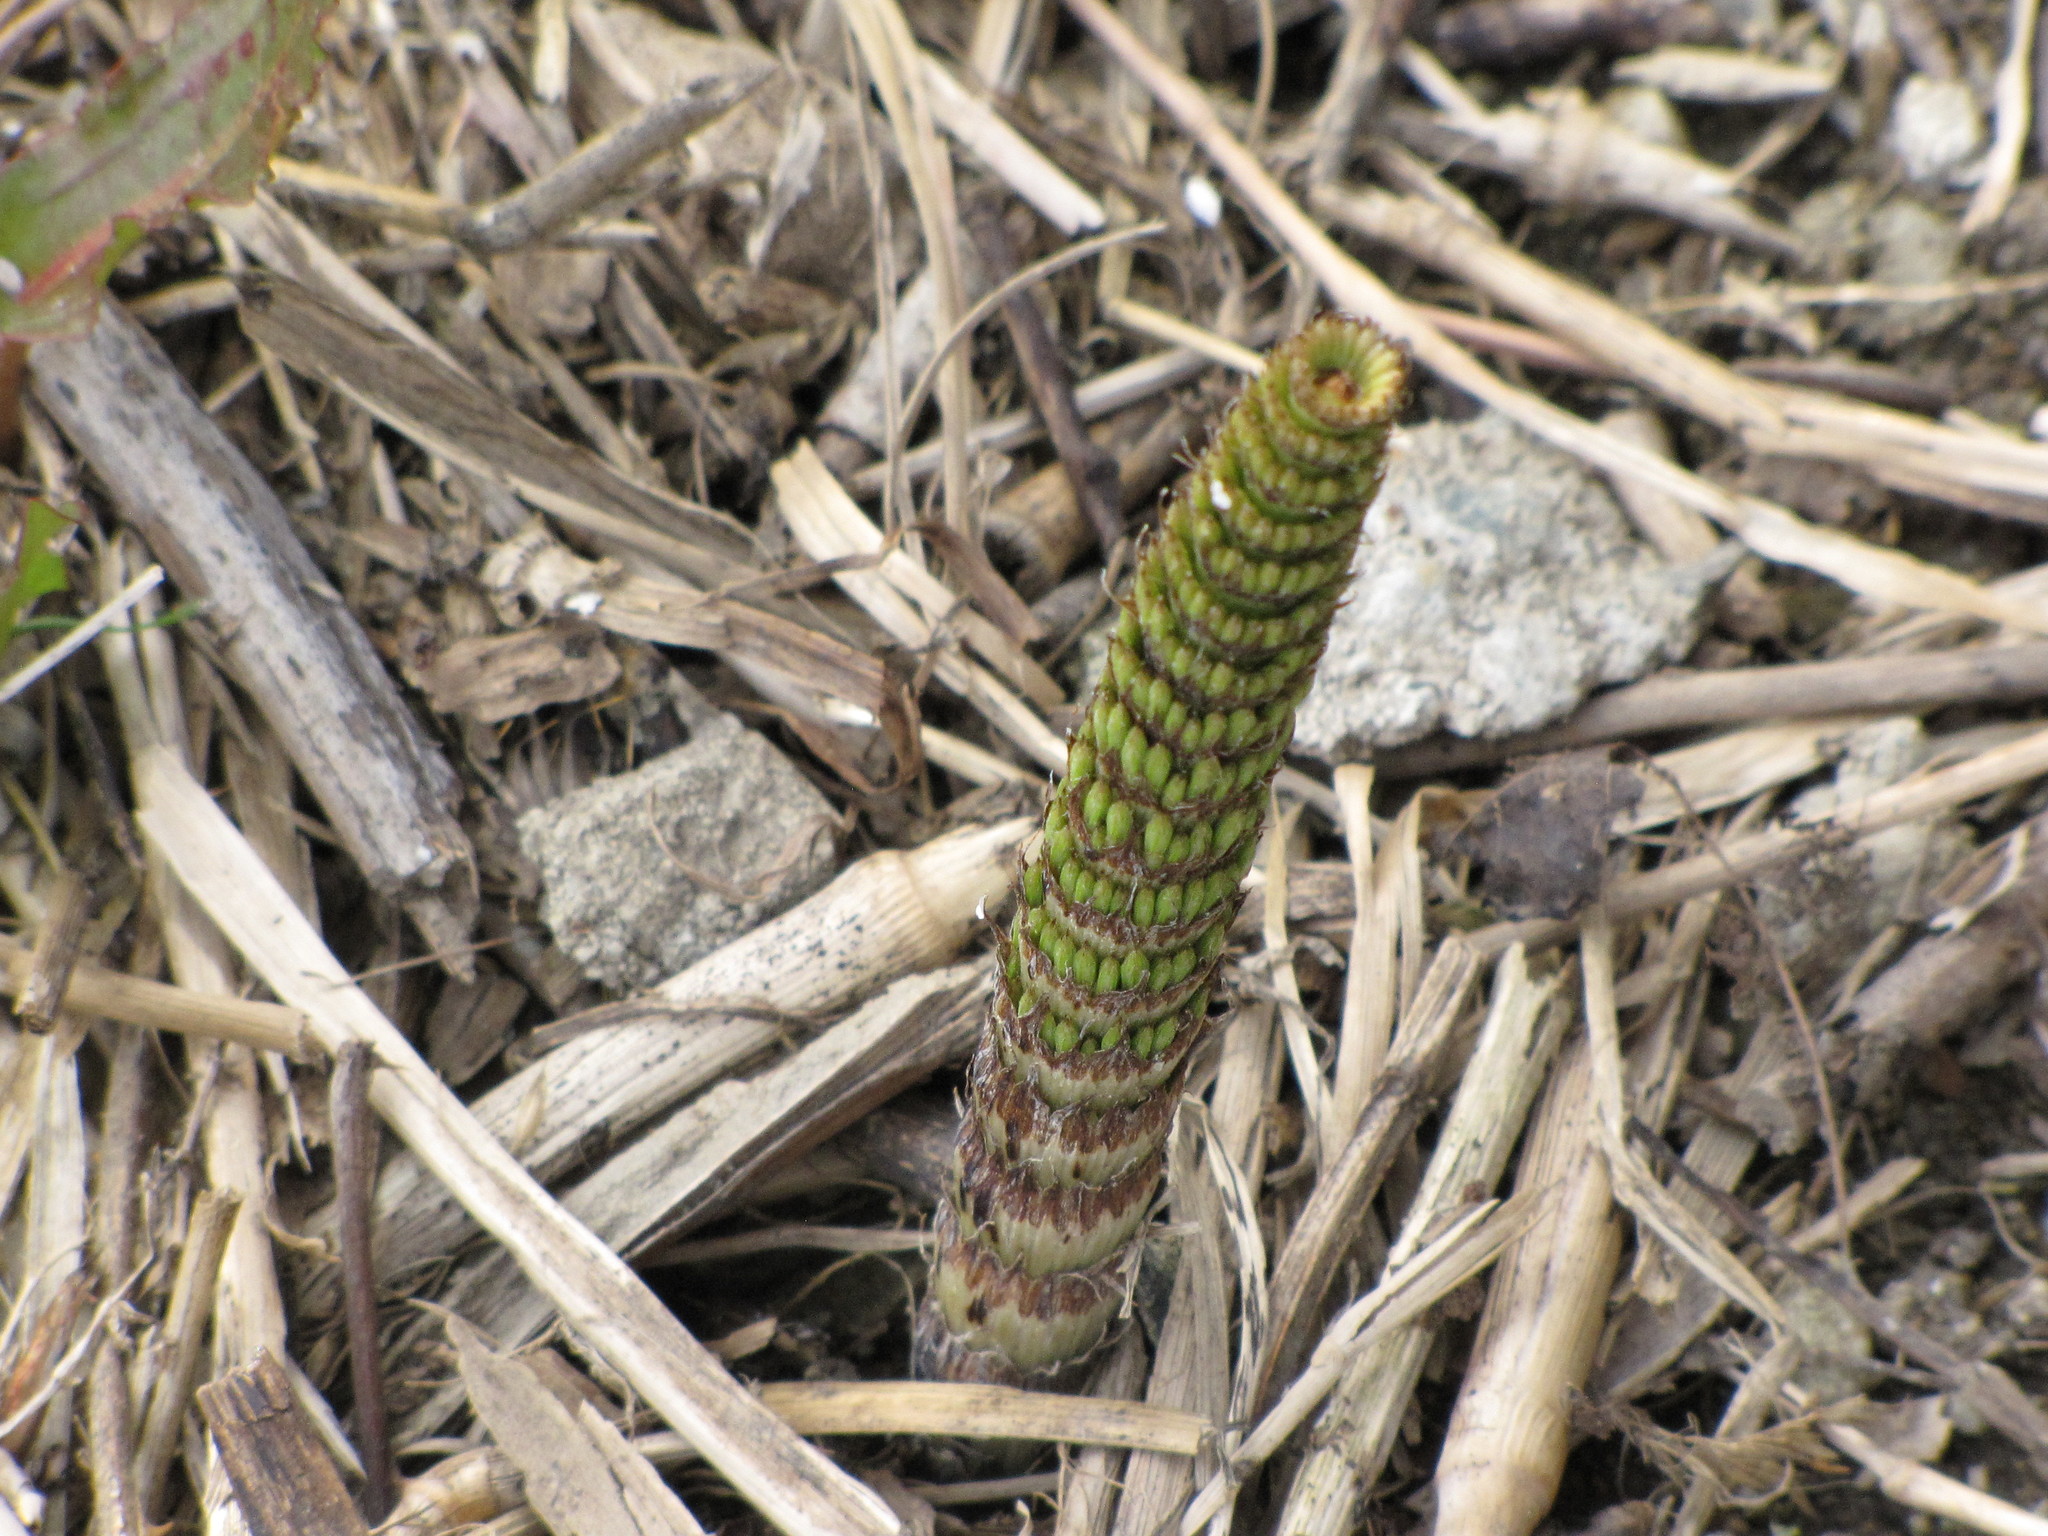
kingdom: Plantae
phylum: Tracheophyta
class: Polypodiopsida
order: Equisetales
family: Equisetaceae
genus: Equisetum
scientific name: Equisetum telmateia
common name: Great horsetail
